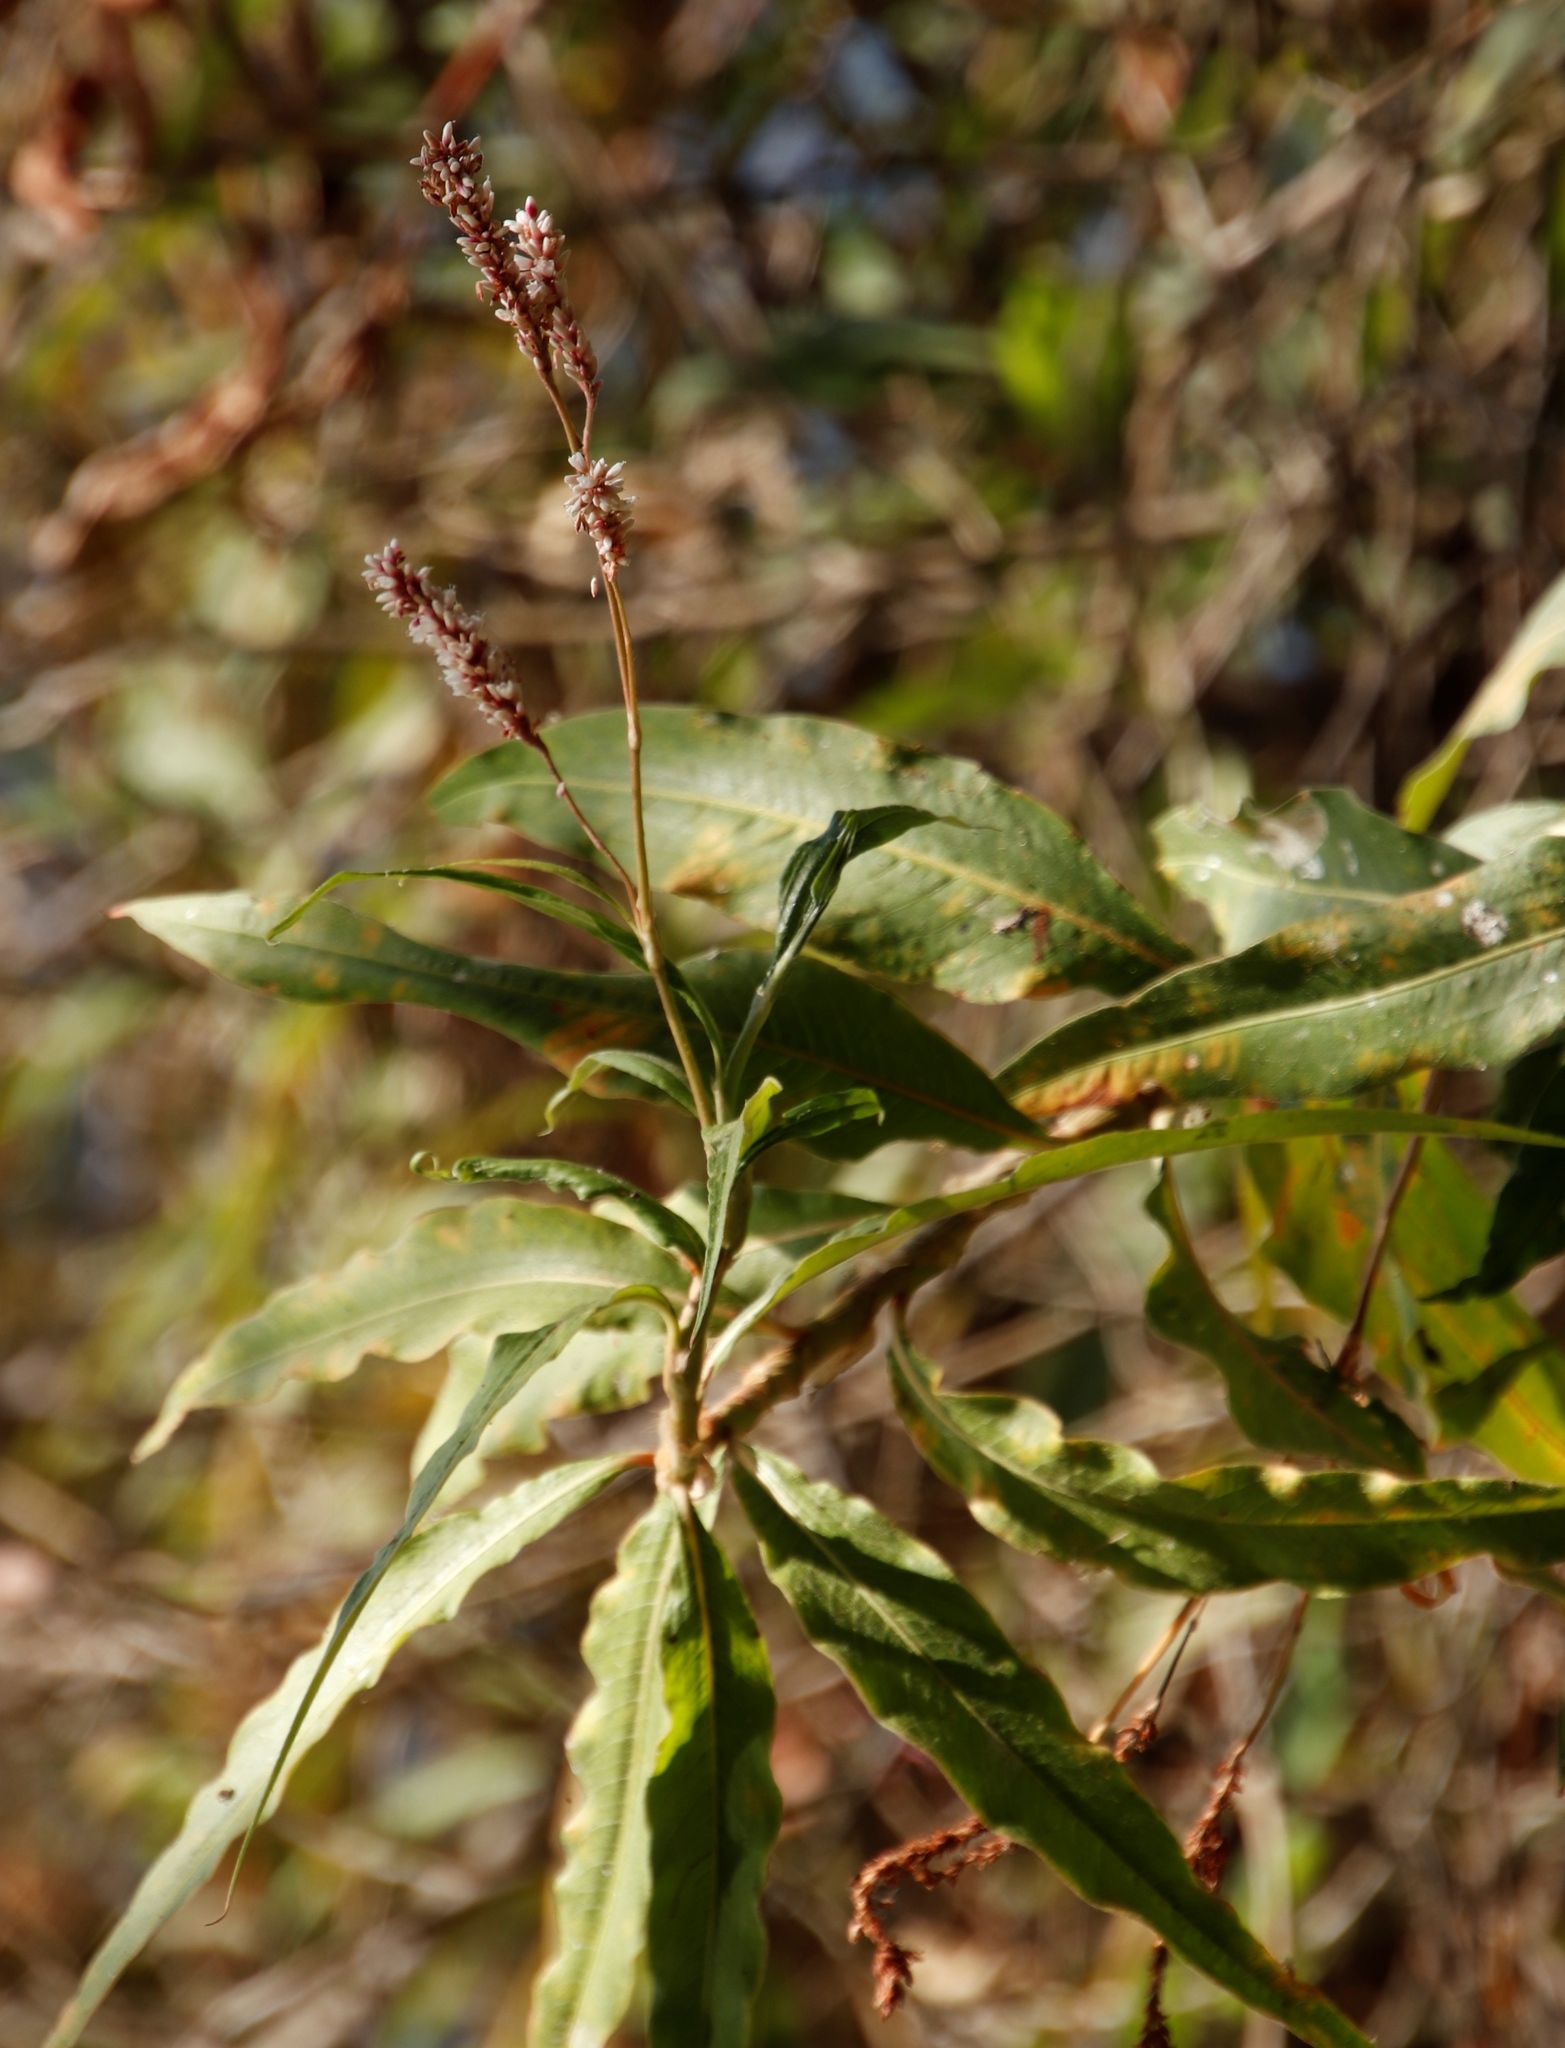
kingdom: Plantae
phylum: Tracheophyta
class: Magnoliopsida
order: Caryophyllales
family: Polygonaceae
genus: Persicaria
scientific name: Persicaria madagascariensis
